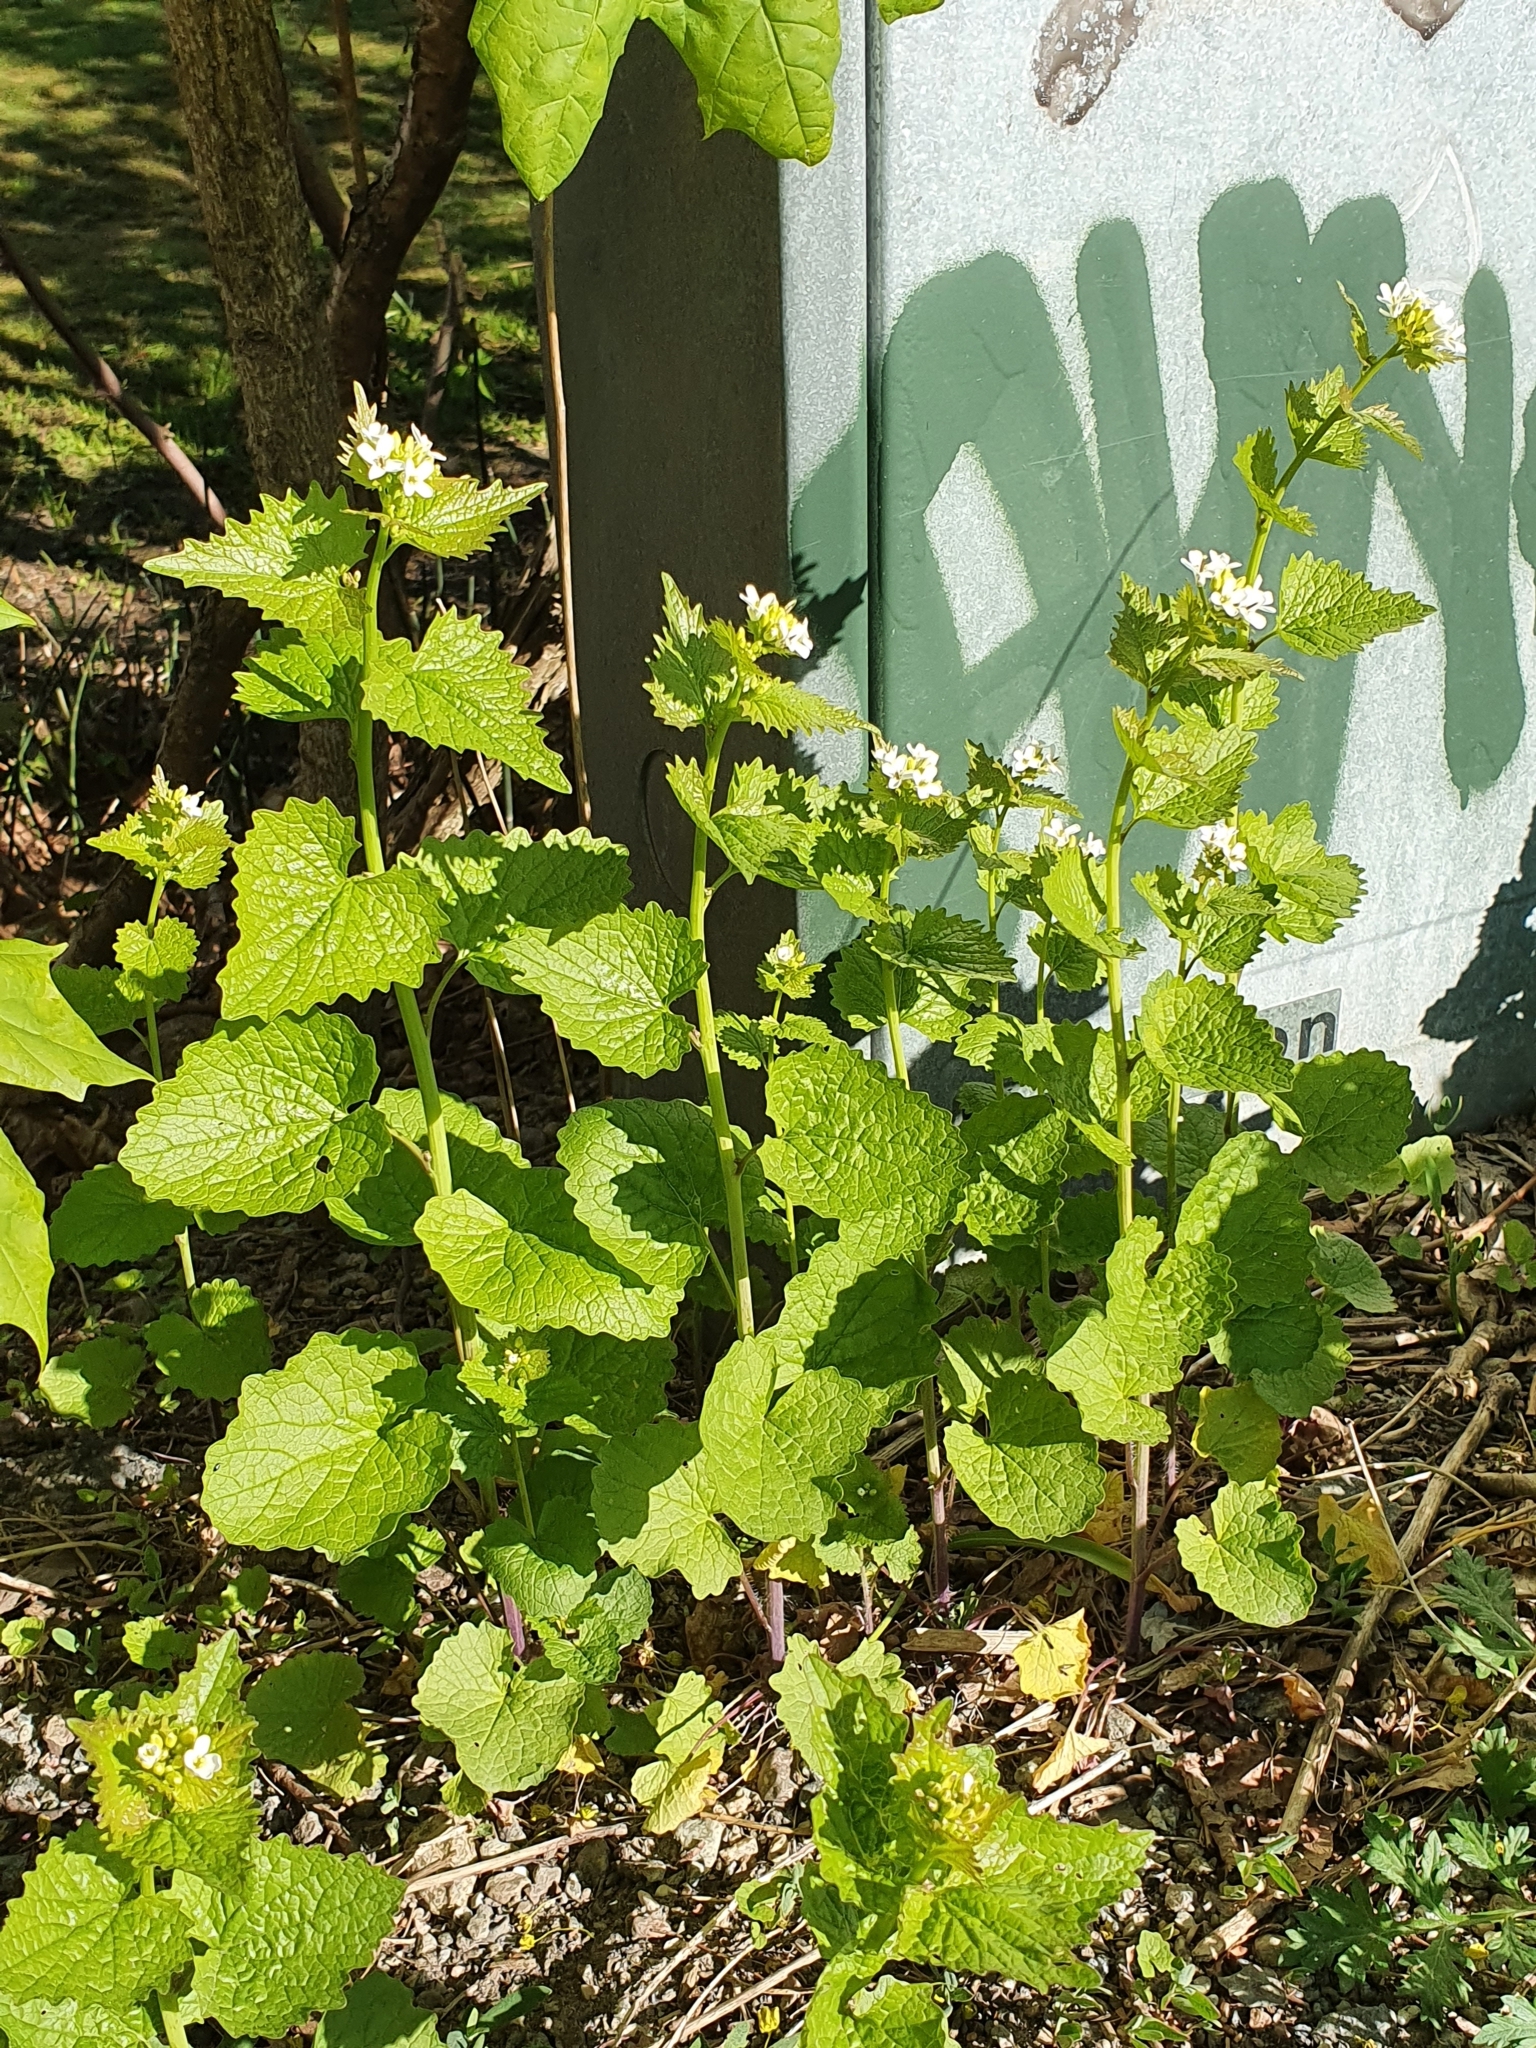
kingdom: Plantae
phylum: Tracheophyta
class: Magnoliopsida
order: Brassicales
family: Brassicaceae
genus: Alliaria
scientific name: Alliaria petiolata
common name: Garlic mustard
